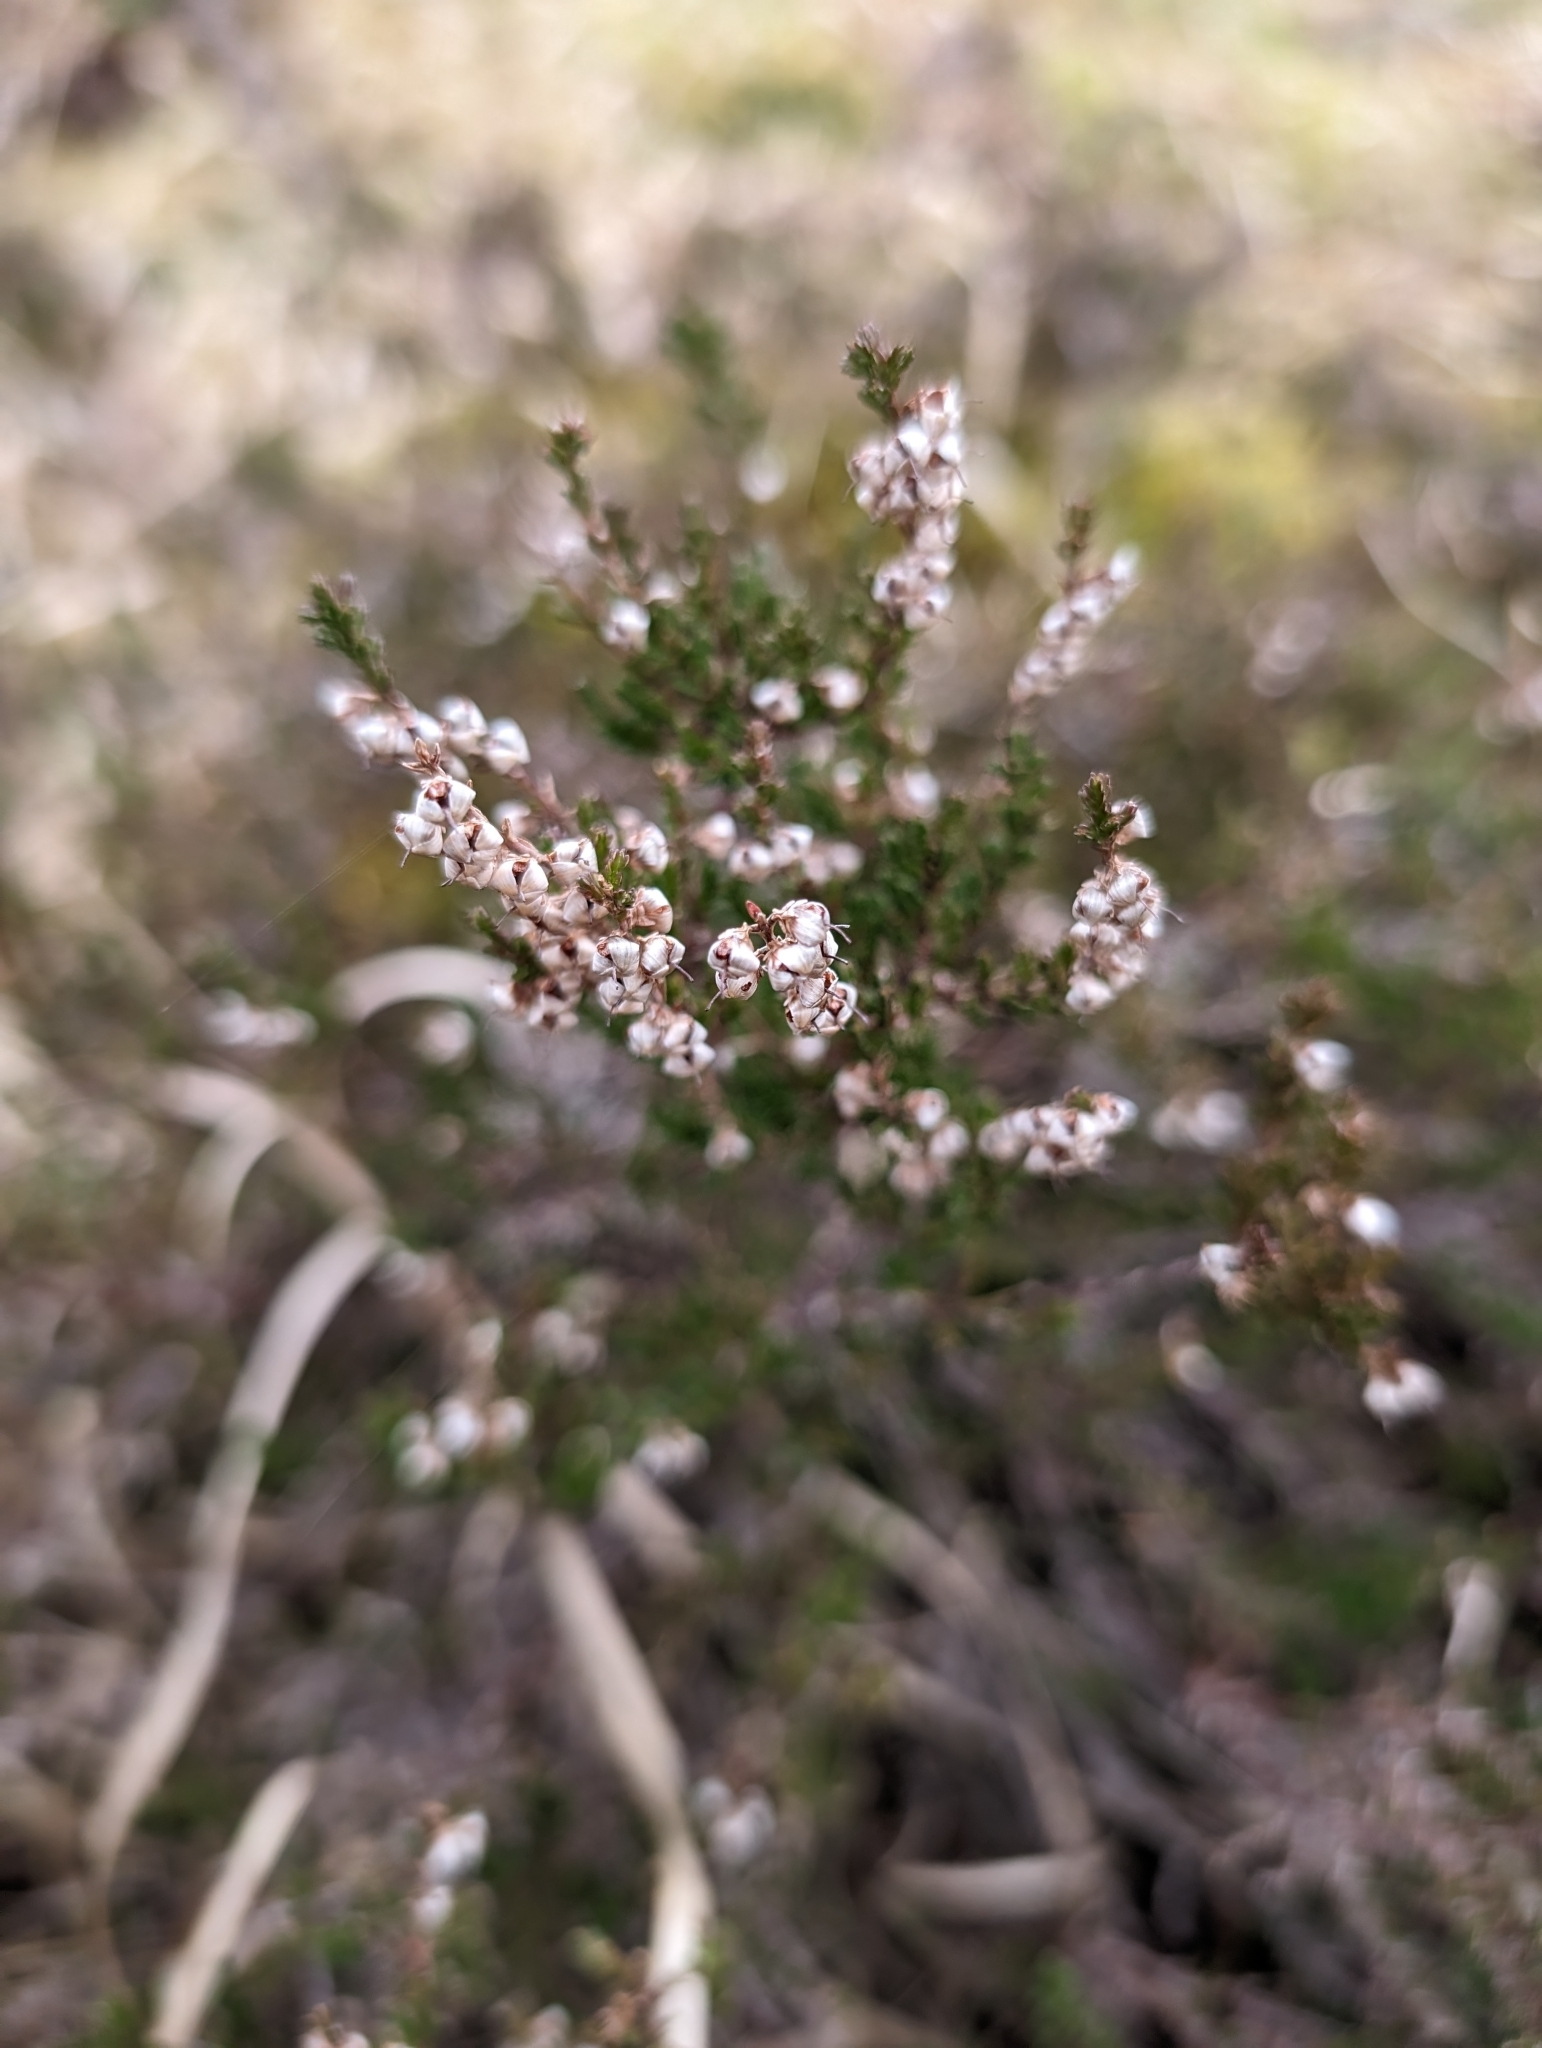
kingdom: Plantae
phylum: Tracheophyta
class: Magnoliopsida
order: Ericales
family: Ericaceae
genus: Calluna
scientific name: Calluna vulgaris
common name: Heather
